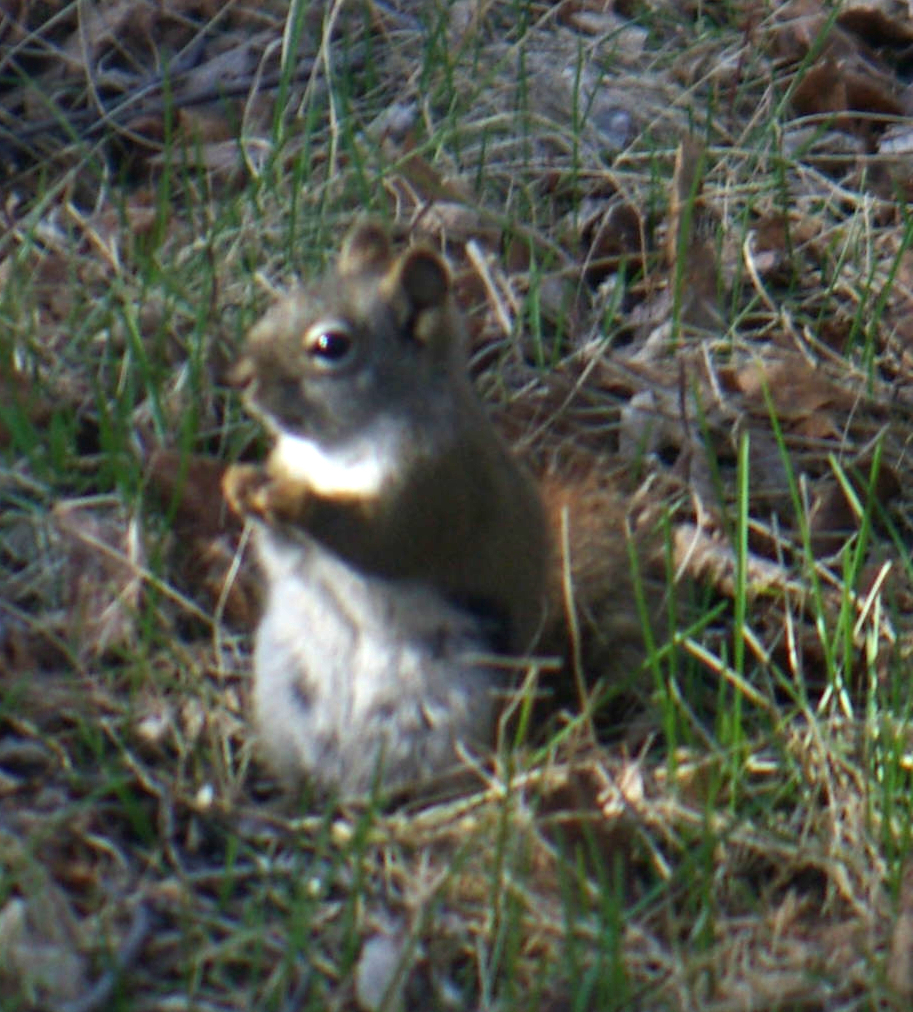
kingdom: Animalia
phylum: Chordata
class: Mammalia
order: Rodentia
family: Sciuridae
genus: Tamiasciurus
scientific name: Tamiasciurus hudsonicus
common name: Red squirrel
